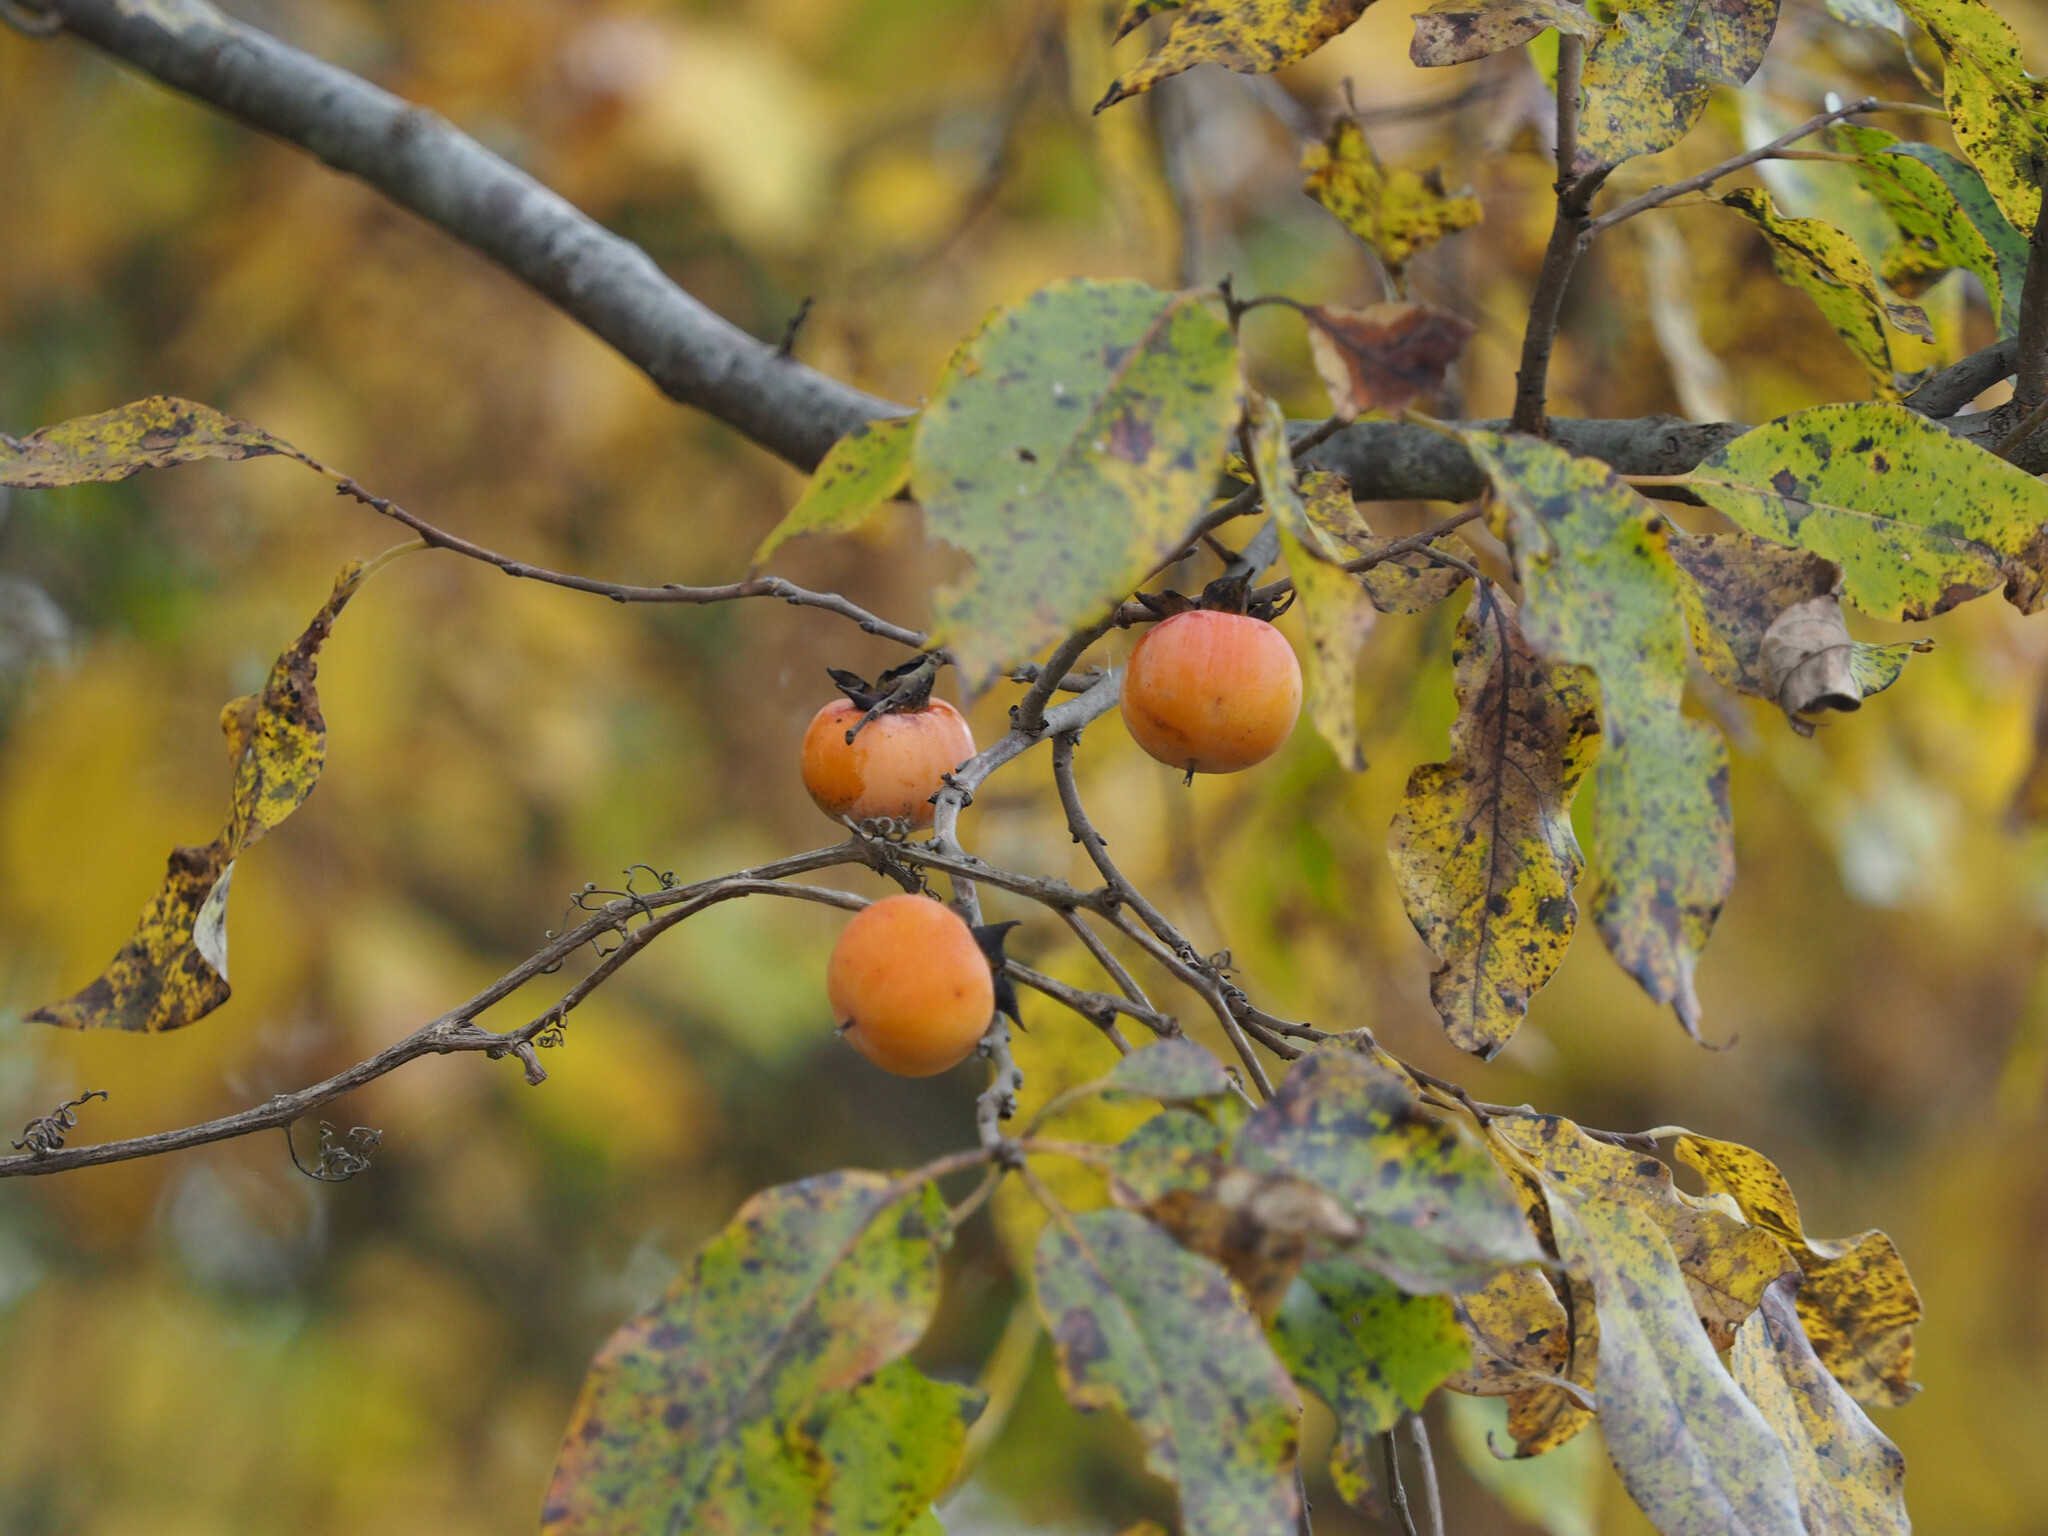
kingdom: Plantae
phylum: Tracheophyta
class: Magnoliopsida
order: Ericales
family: Ebenaceae
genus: Diospyros
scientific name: Diospyros virginiana
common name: Persimmon
